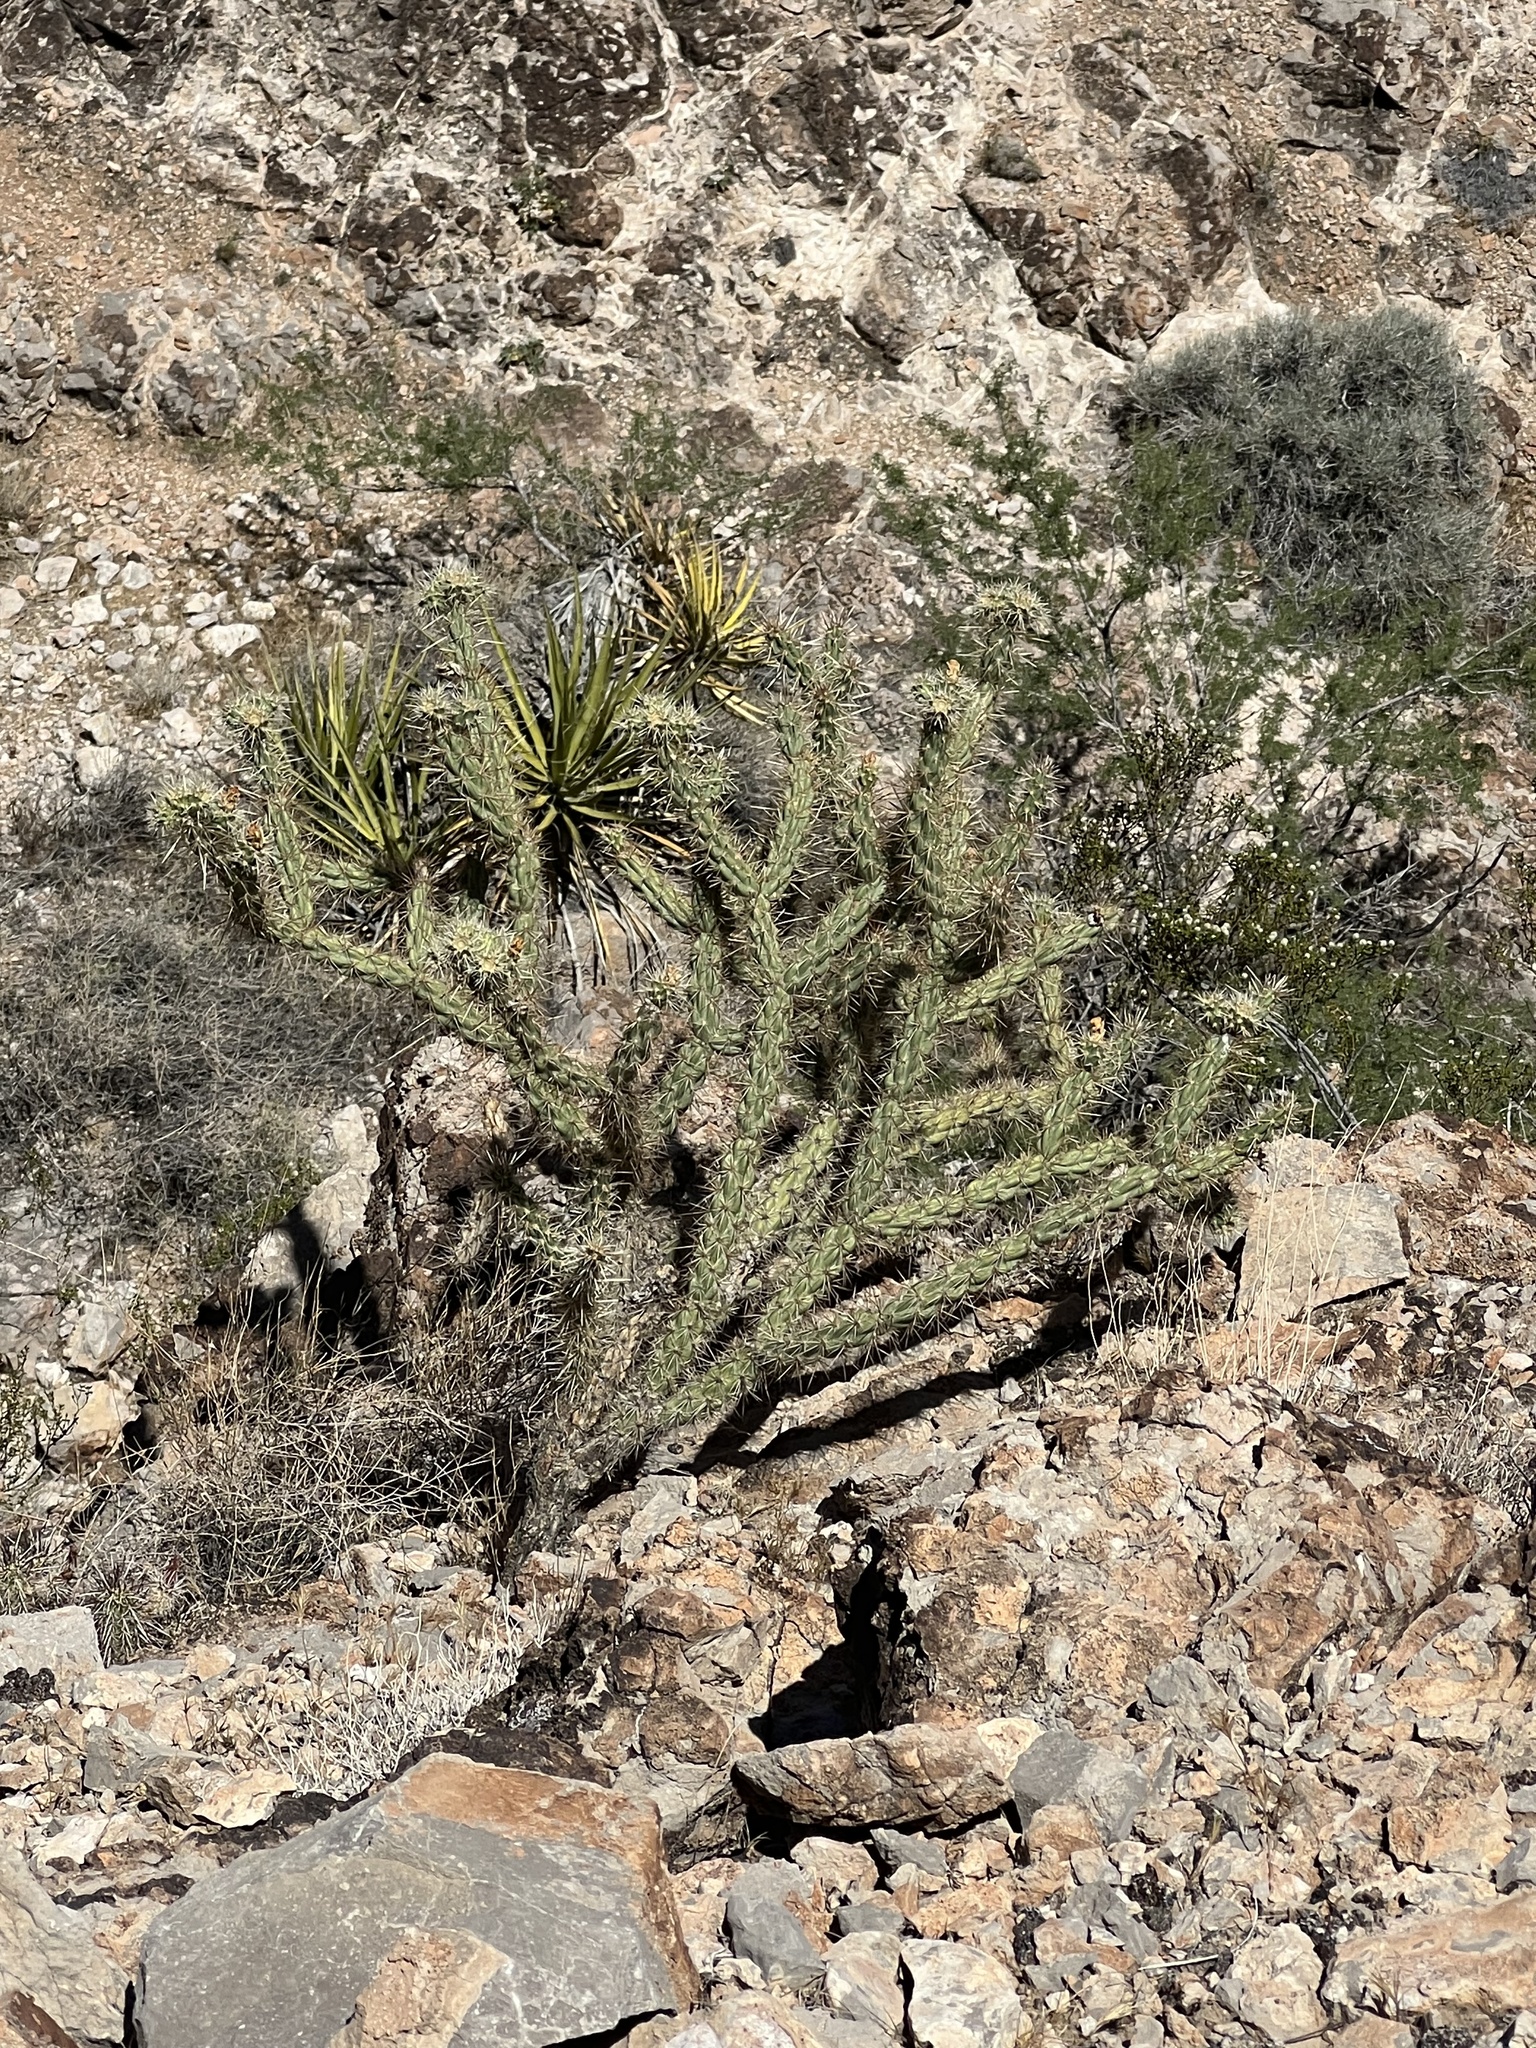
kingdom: Plantae
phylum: Tracheophyta
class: Magnoliopsida
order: Caryophyllales
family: Cactaceae
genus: Cylindropuntia
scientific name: Cylindropuntia acanthocarpa
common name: Buckhorn cholla
